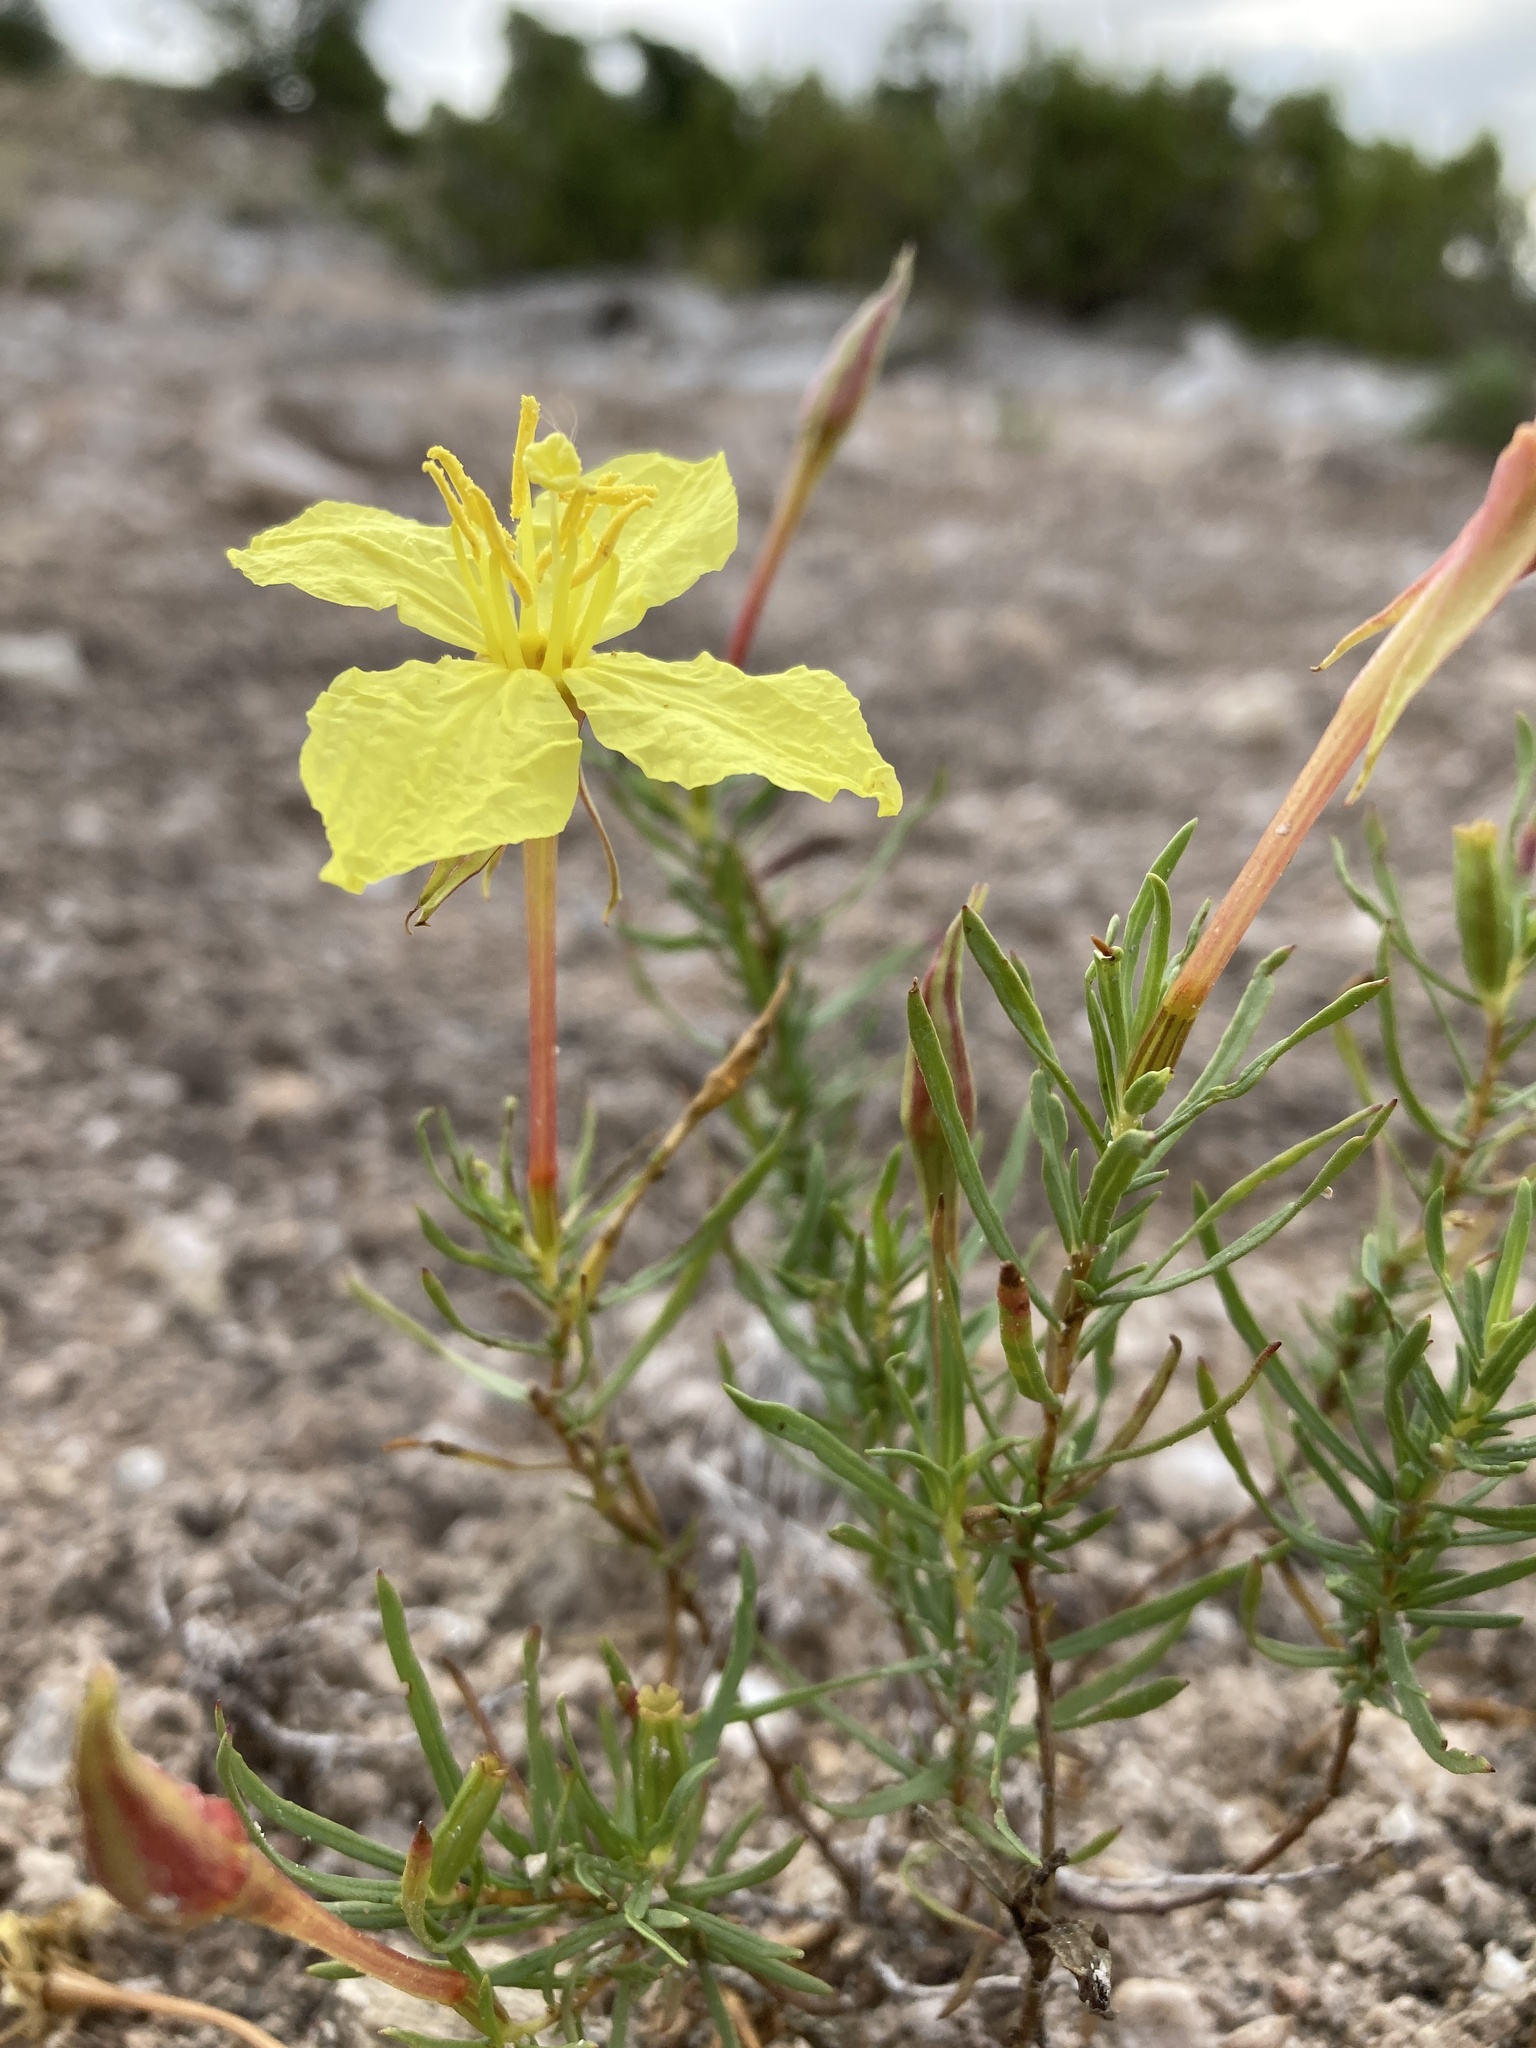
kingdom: Plantae
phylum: Tracheophyta
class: Magnoliopsida
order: Myrtales
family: Onagraceae
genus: Oenothera
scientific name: Oenothera hartwegii
